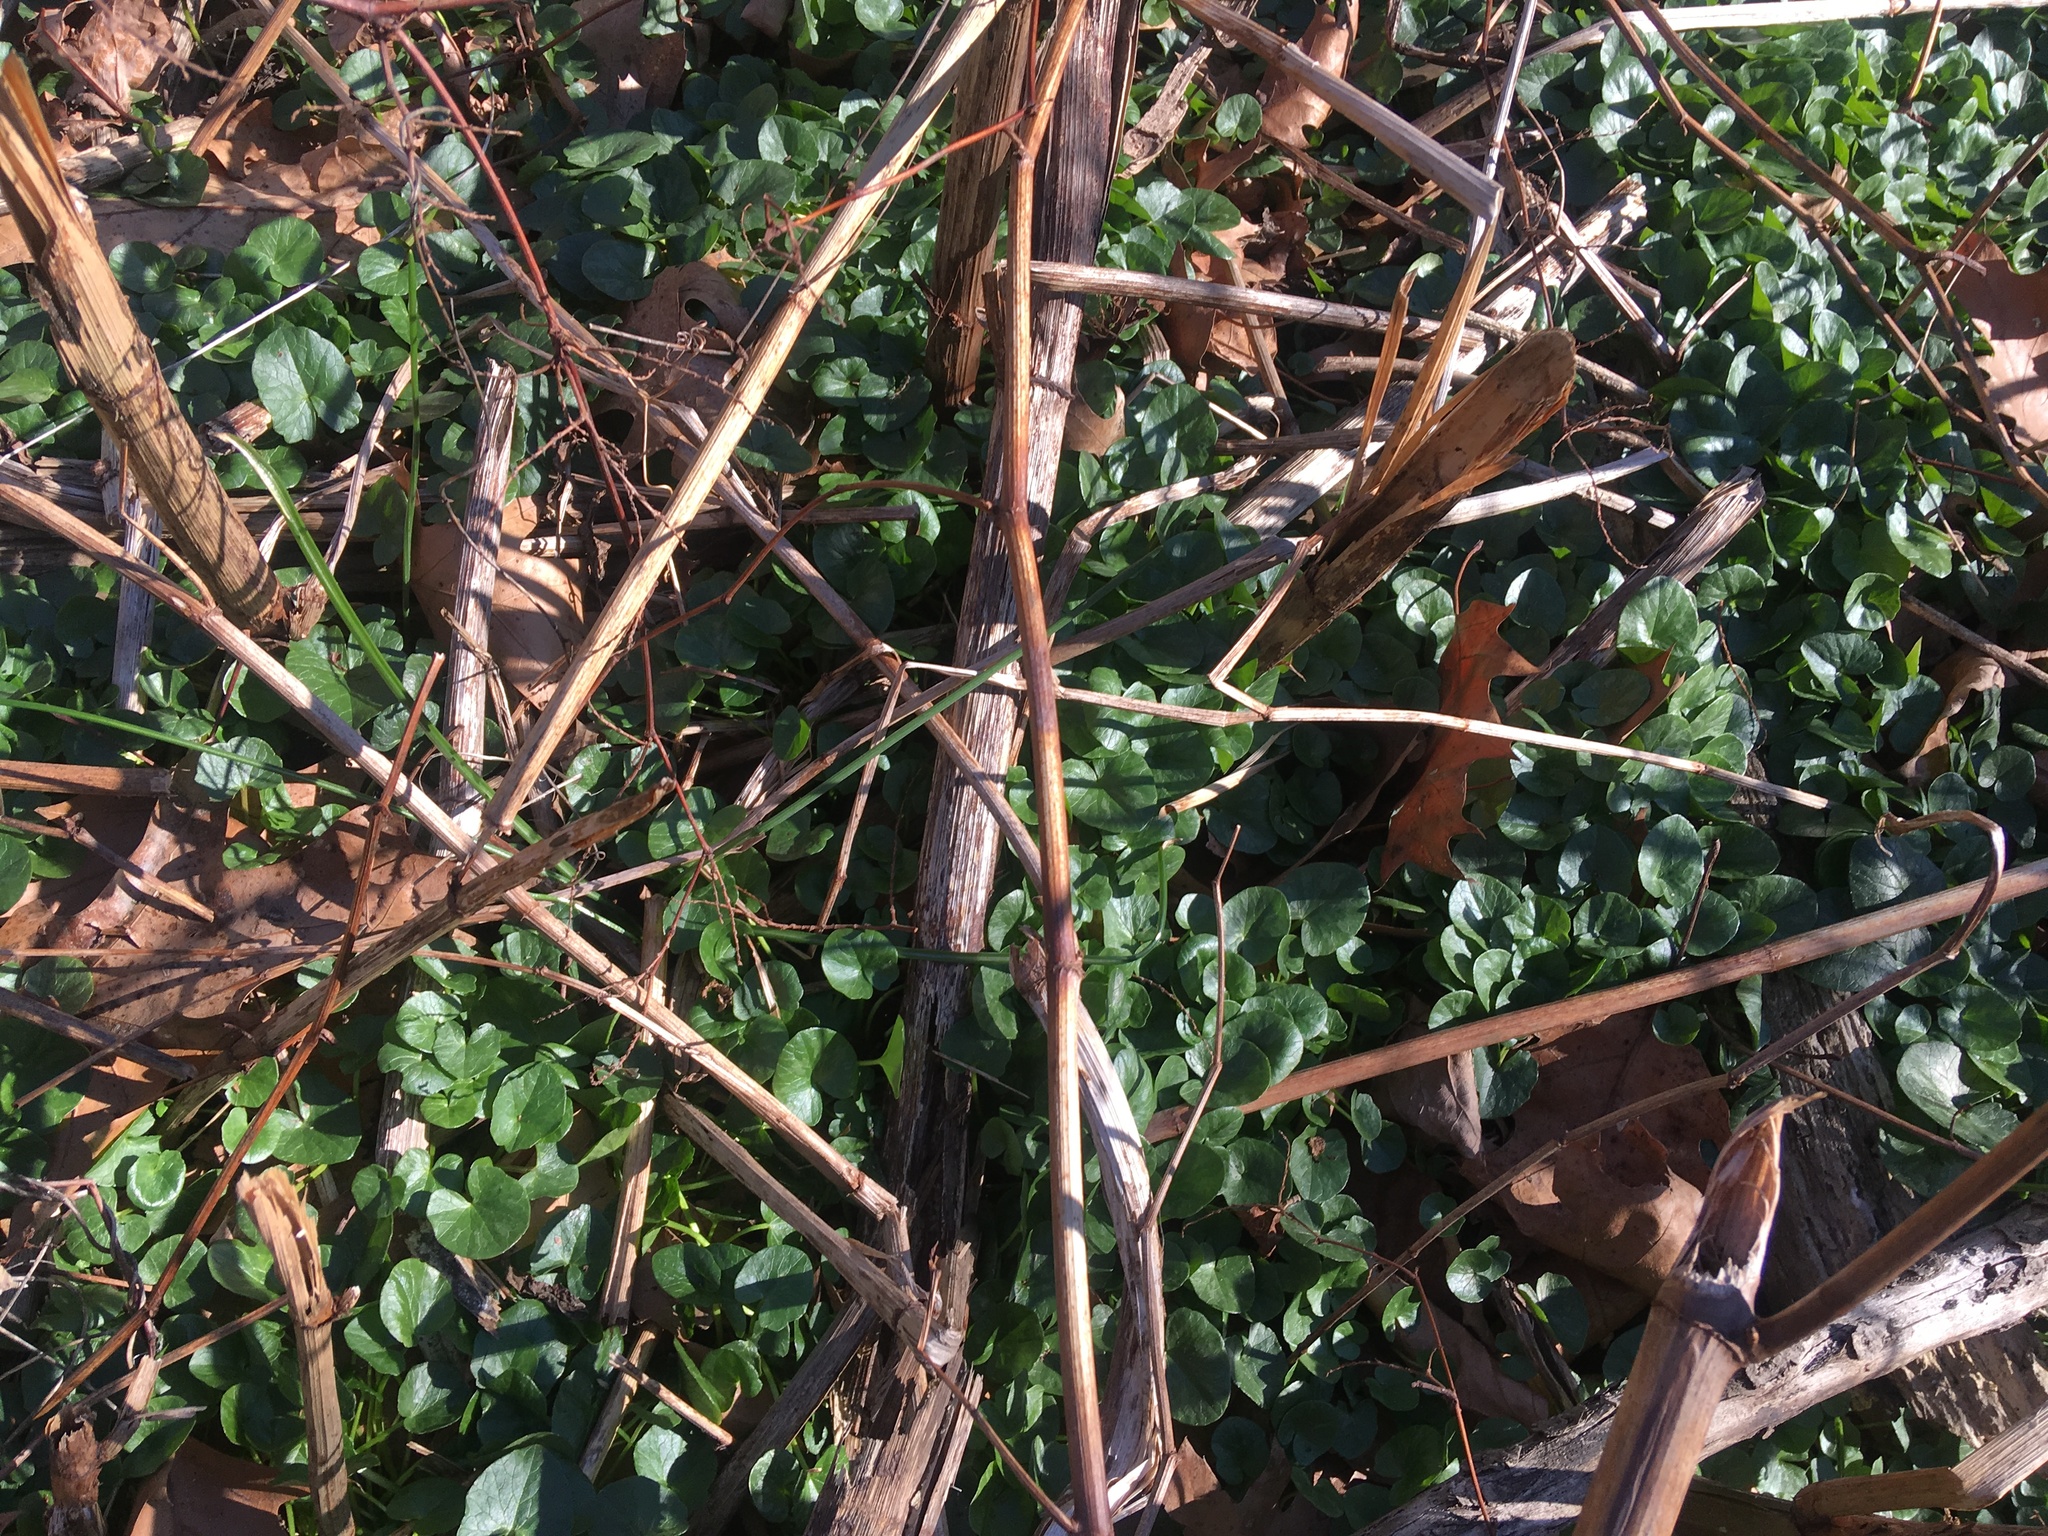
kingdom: Plantae
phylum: Tracheophyta
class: Magnoliopsida
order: Ranunculales
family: Ranunculaceae
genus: Ficaria
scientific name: Ficaria verna
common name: Lesser celandine
